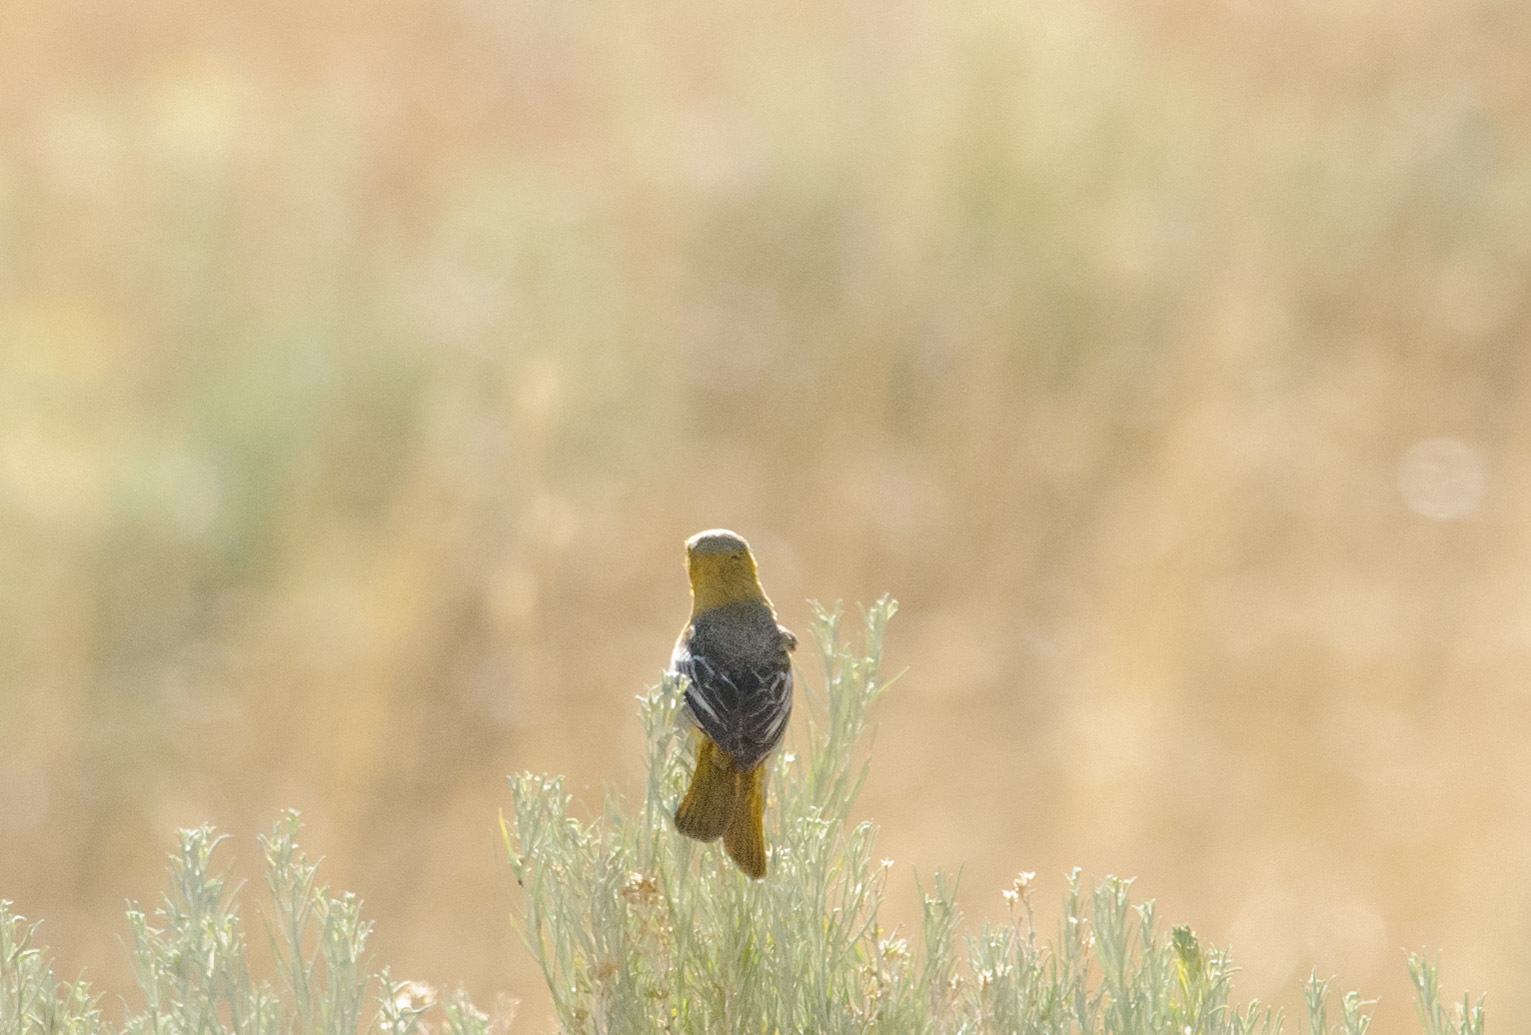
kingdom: Animalia
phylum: Chordata
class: Aves
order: Passeriformes
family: Icteridae
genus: Icterus
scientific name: Icterus bullockii
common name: Bullock's oriole
